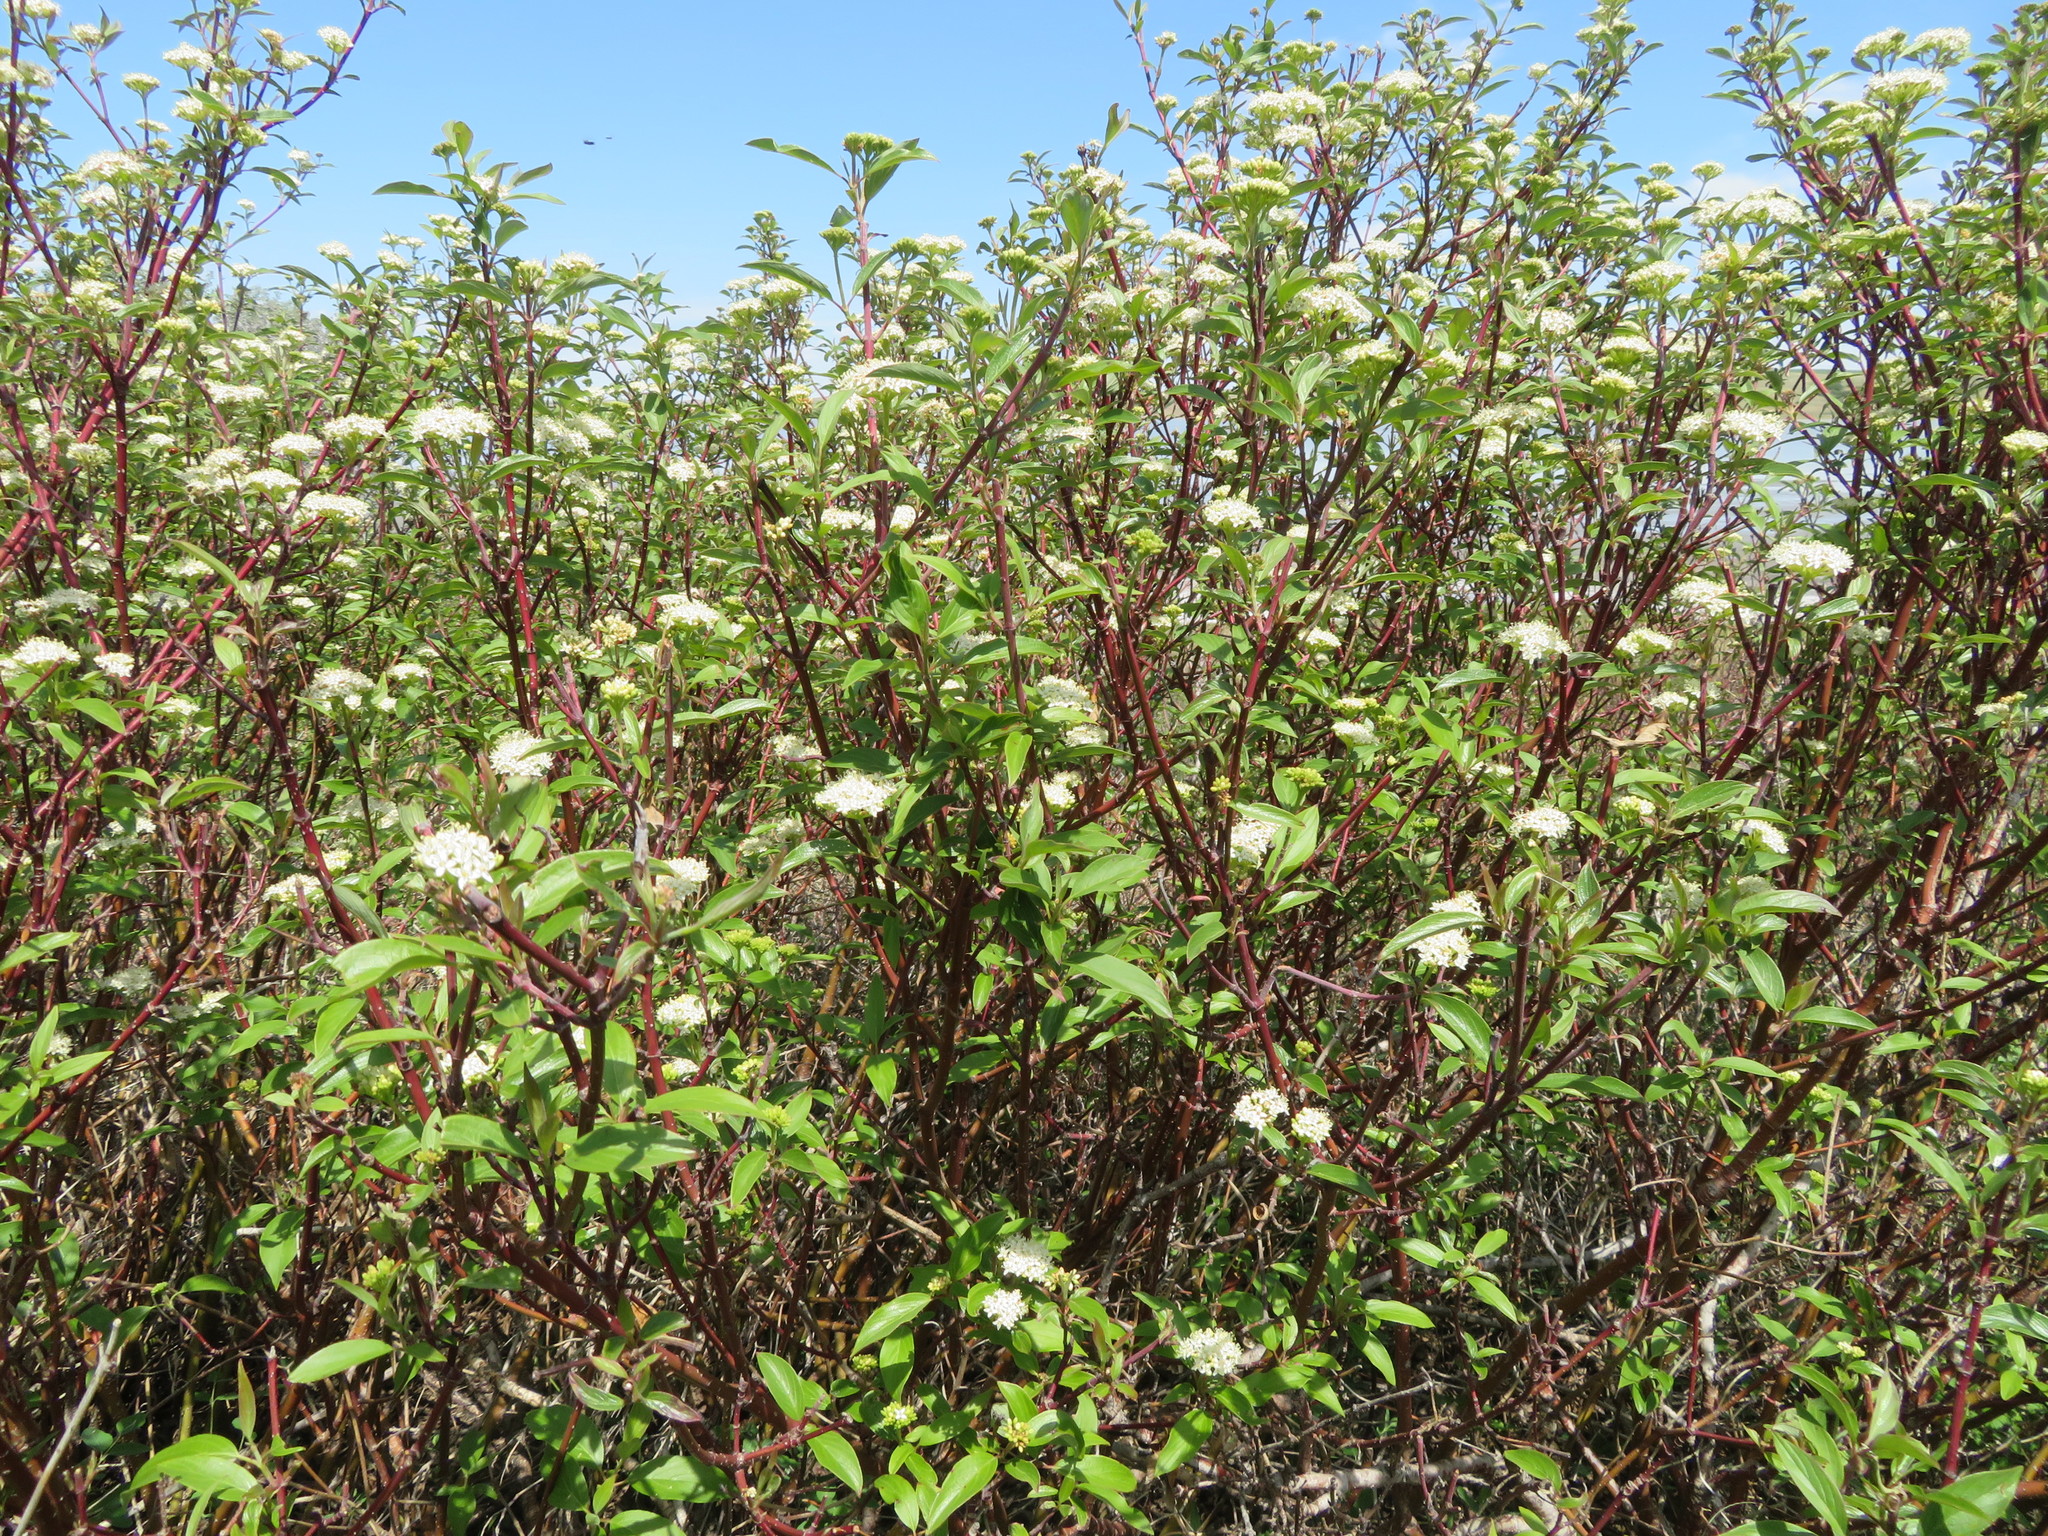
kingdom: Plantae
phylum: Tracheophyta
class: Magnoliopsida
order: Cornales
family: Cornaceae
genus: Cornus
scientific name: Cornus sericea
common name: Red-osier dogwood
